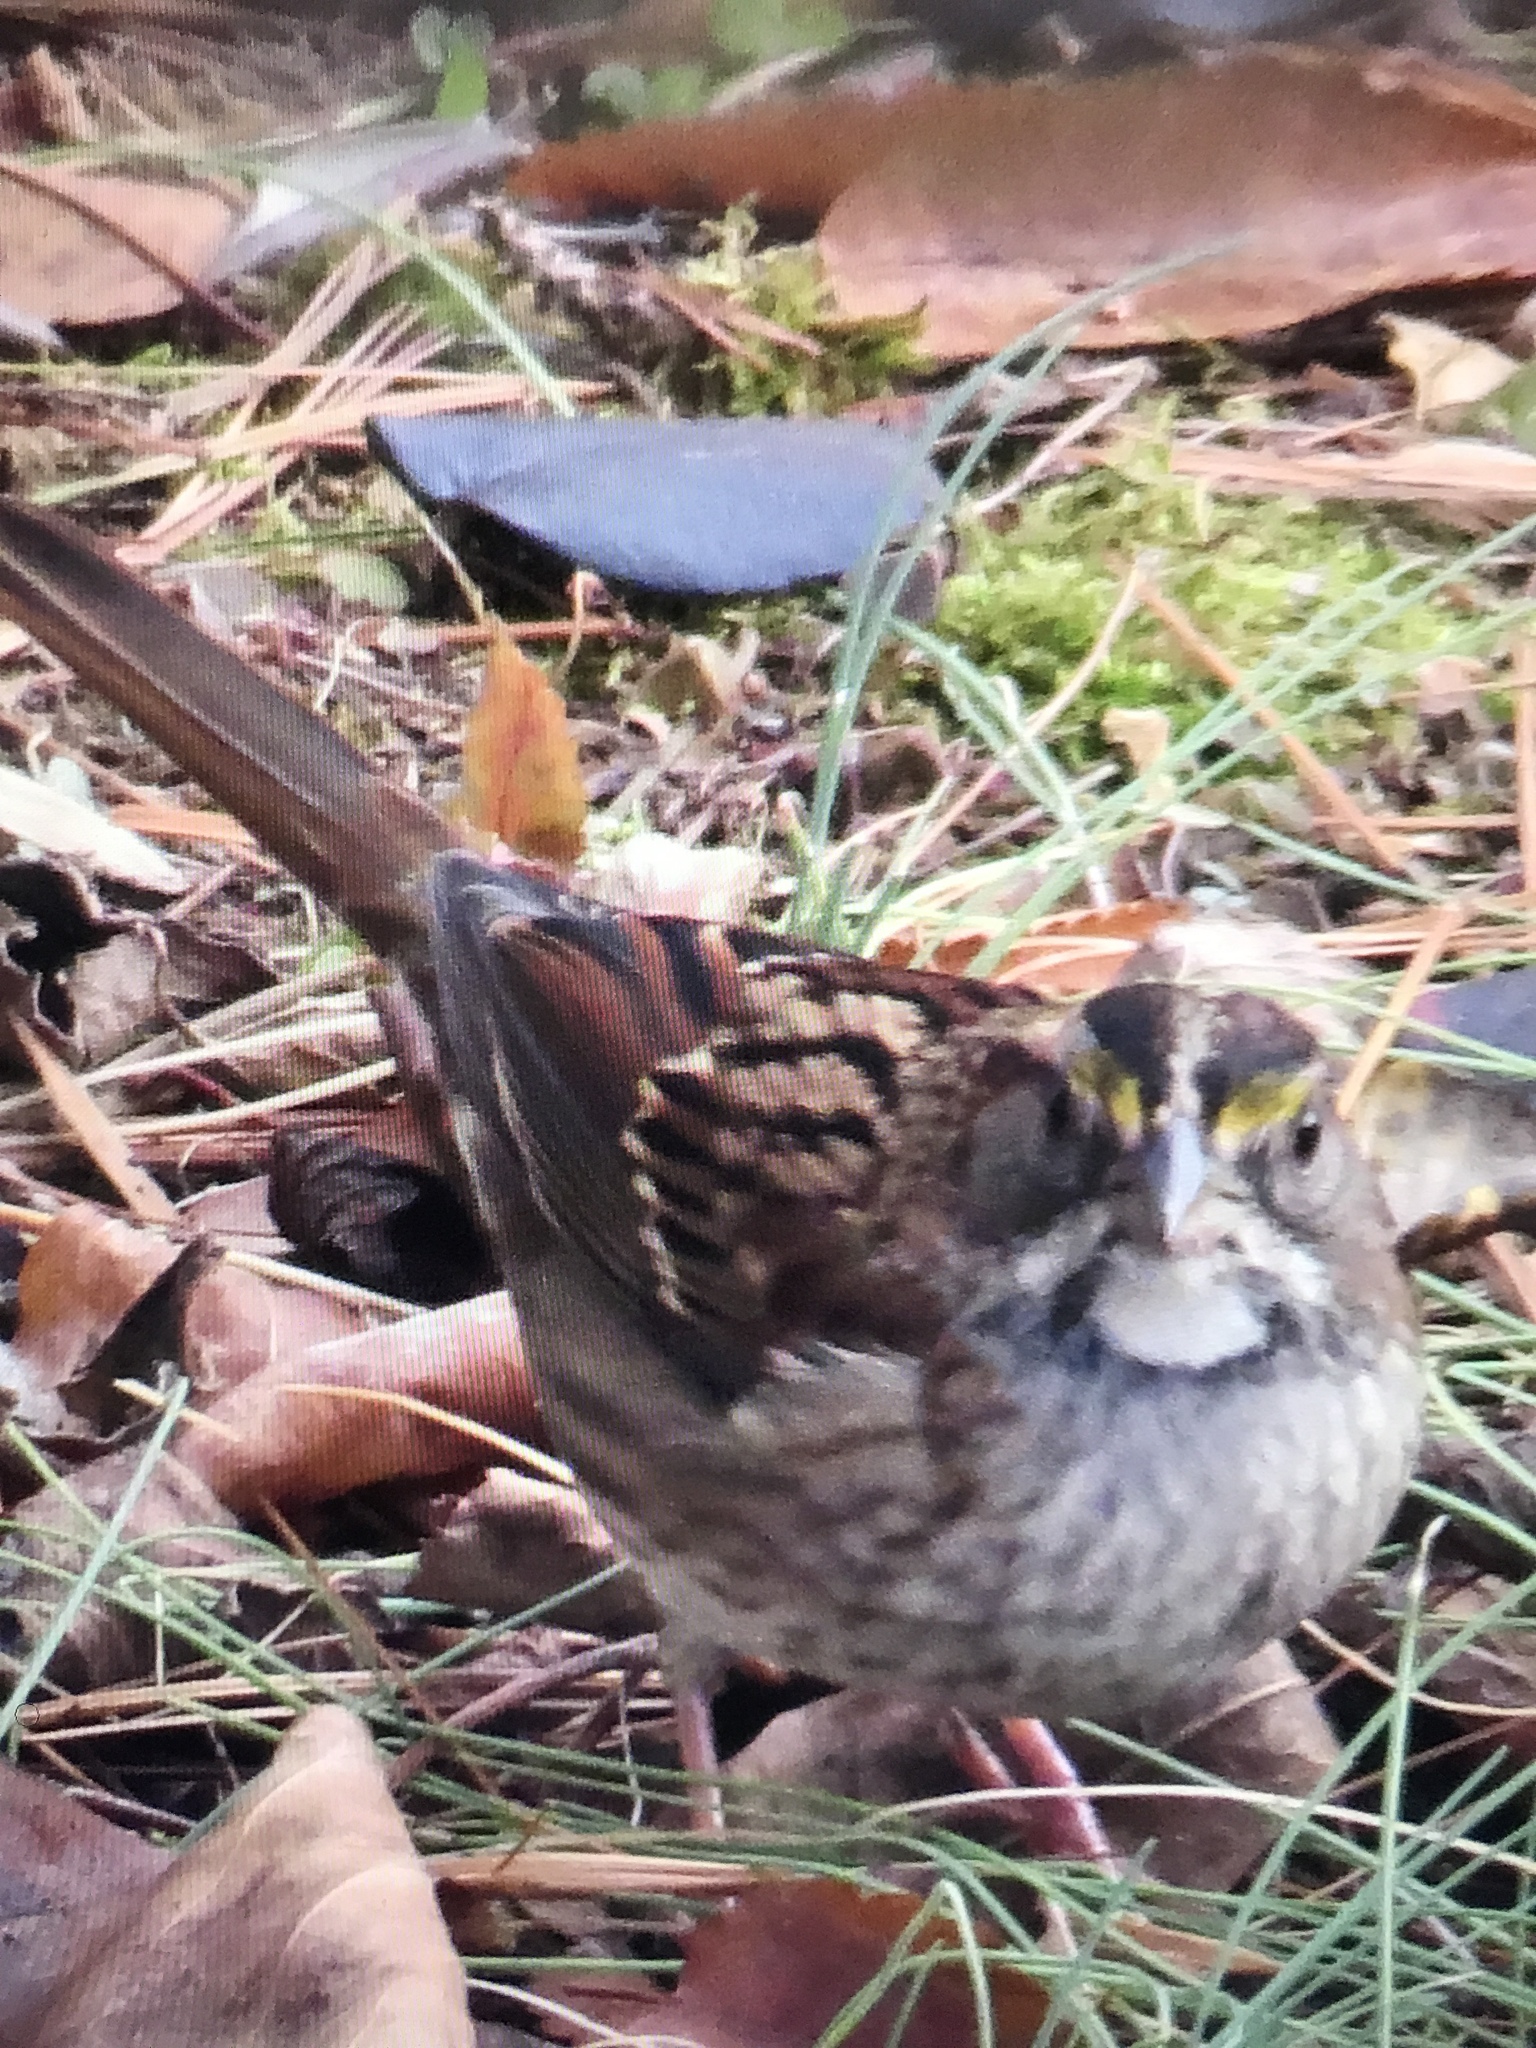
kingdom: Animalia
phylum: Chordata
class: Aves
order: Passeriformes
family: Passerellidae
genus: Zonotrichia
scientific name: Zonotrichia albicollis
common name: White-throated sparrow
